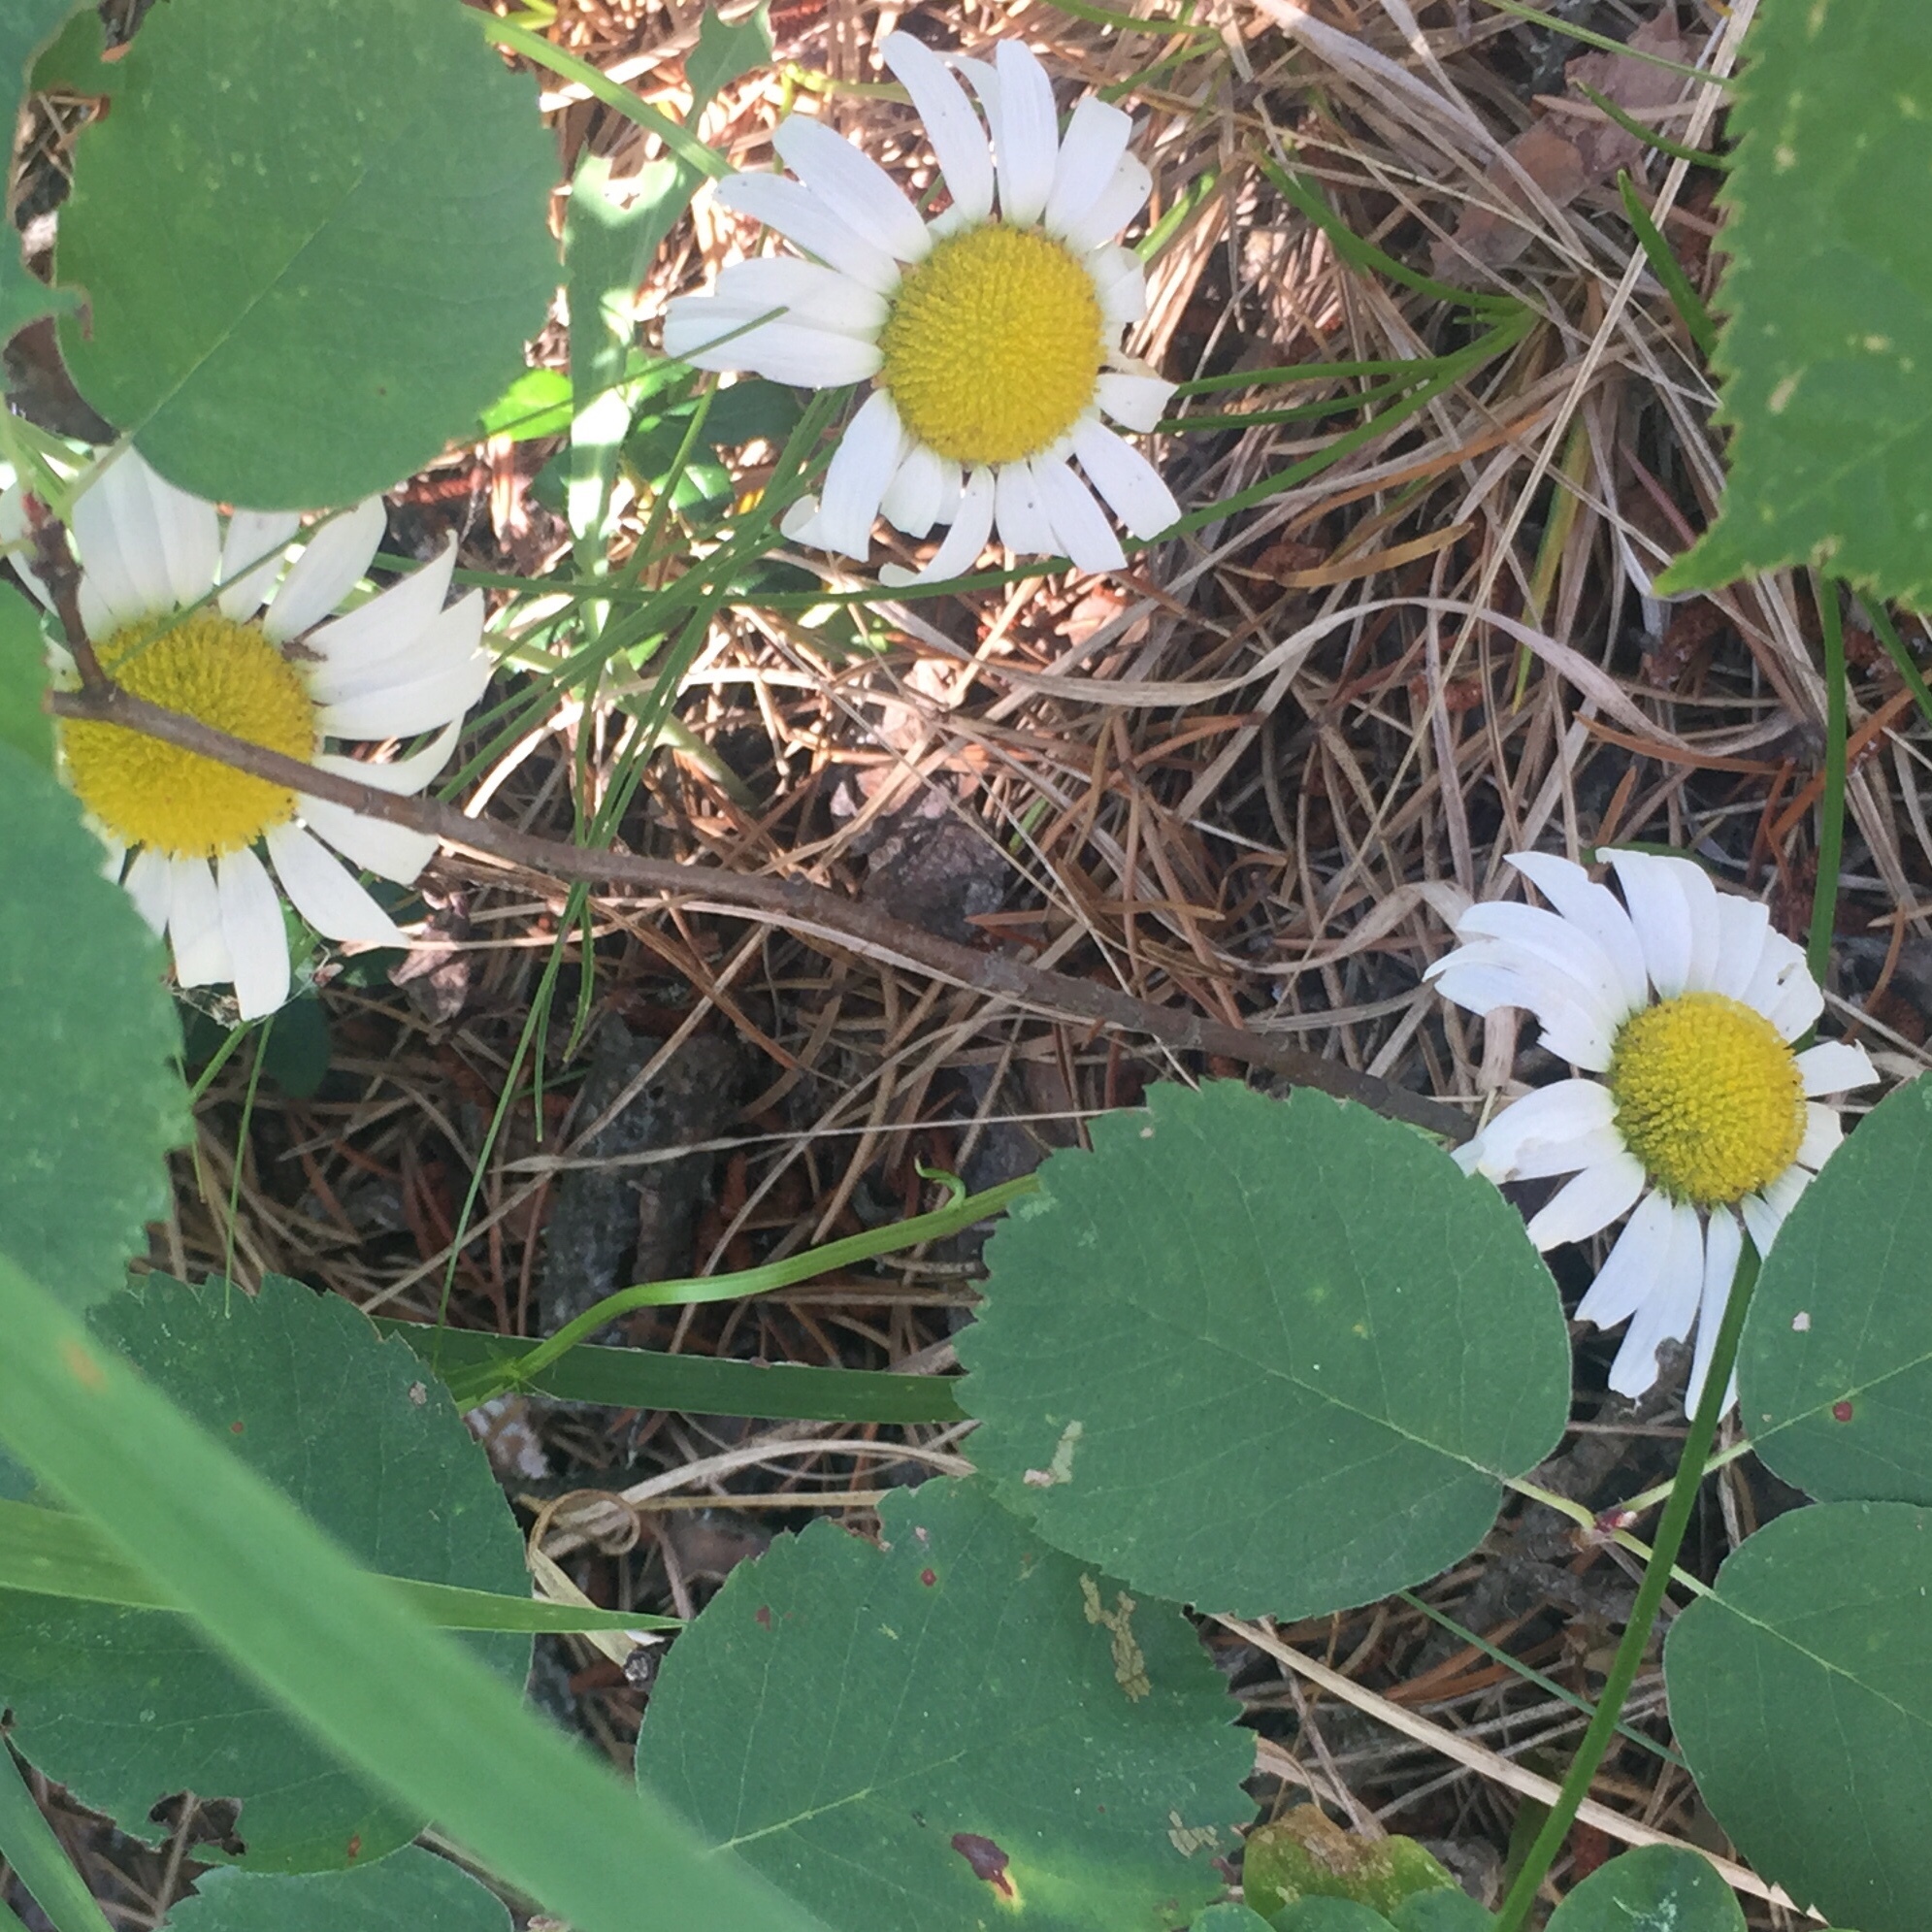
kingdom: Plantae
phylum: Tracheophyta
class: Magnoliopsida
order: Asterales
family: Asteraceae
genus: Leucanthemum
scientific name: Leucanthemum vulgare
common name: Oxeye daisy
